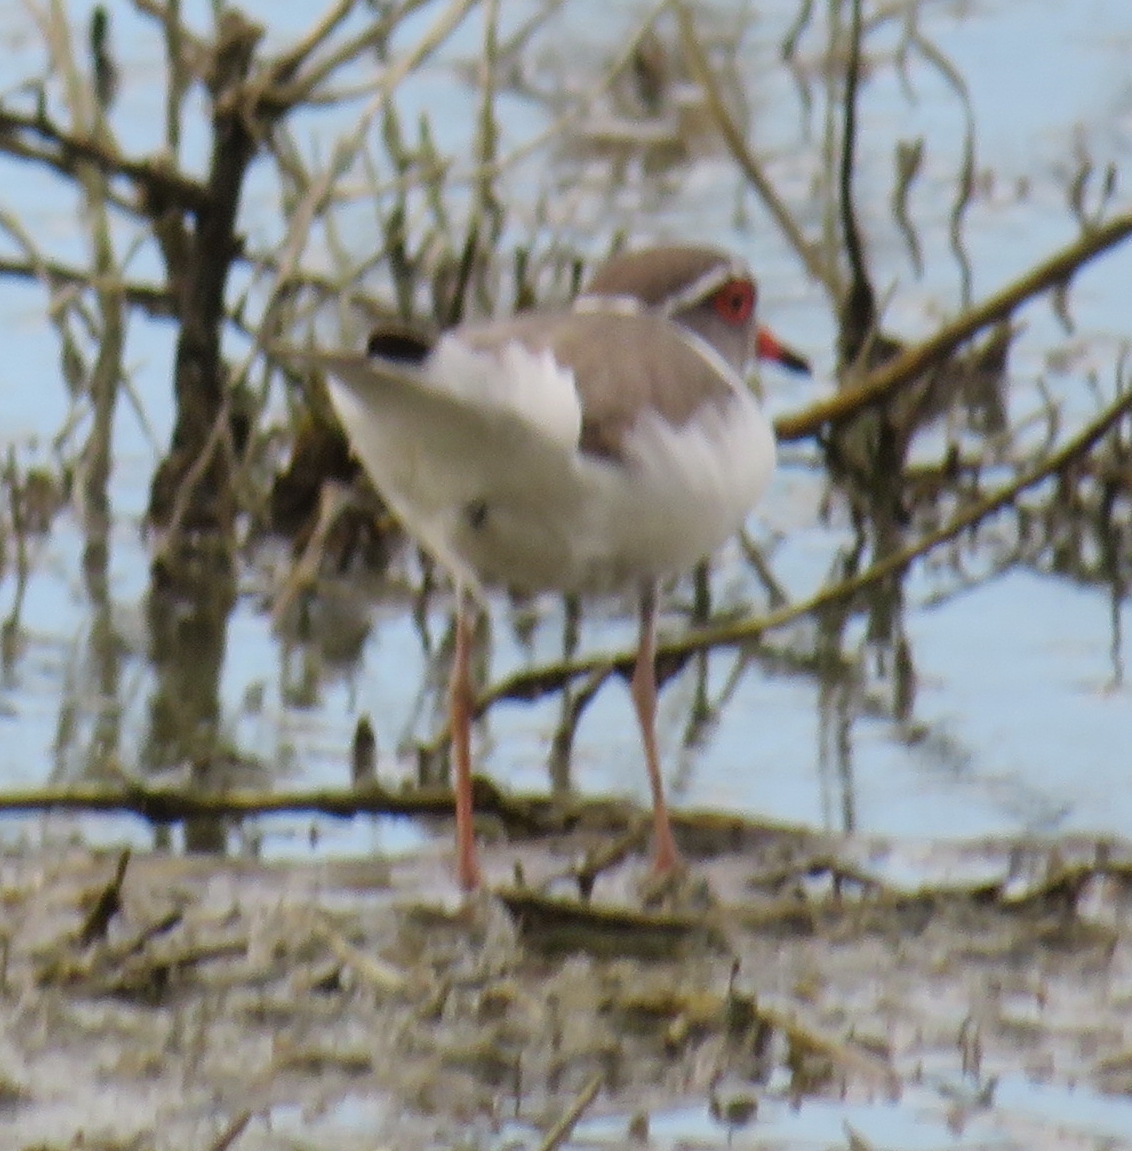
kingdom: Animalia
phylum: Chordata
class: Aves
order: Charadriiformes
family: Charadriidae
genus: Charadrius
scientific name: Charadrius tricollaris
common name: Three-banded plover
